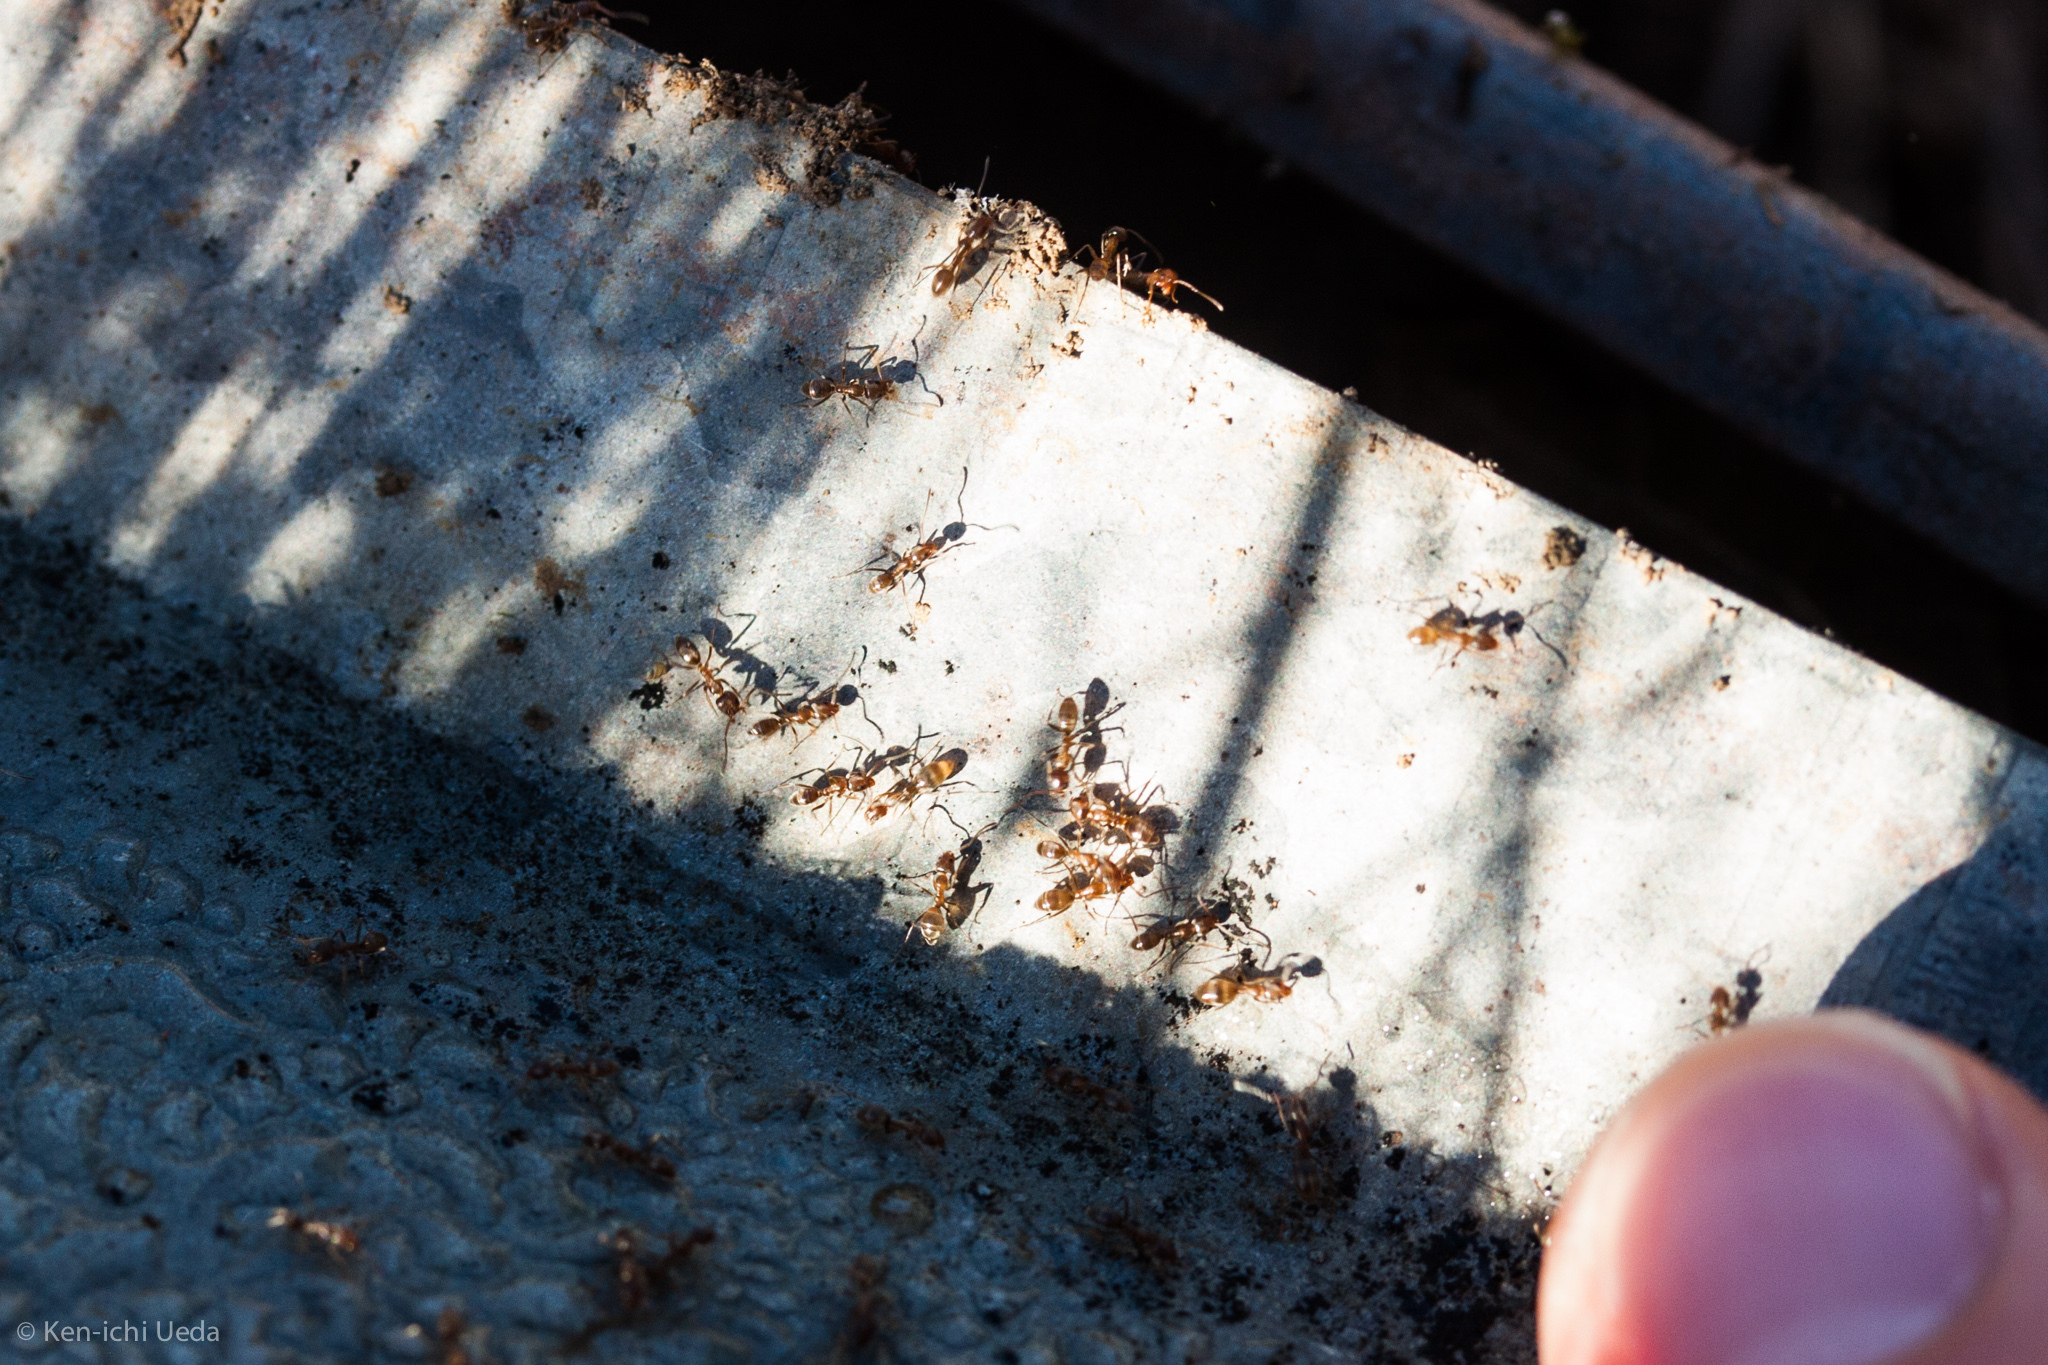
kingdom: Animalia
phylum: Arthropoda
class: Insecta
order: Hymenoptera
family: Formicidae
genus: Linepithema
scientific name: Linepithema humile
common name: Argentine ant
